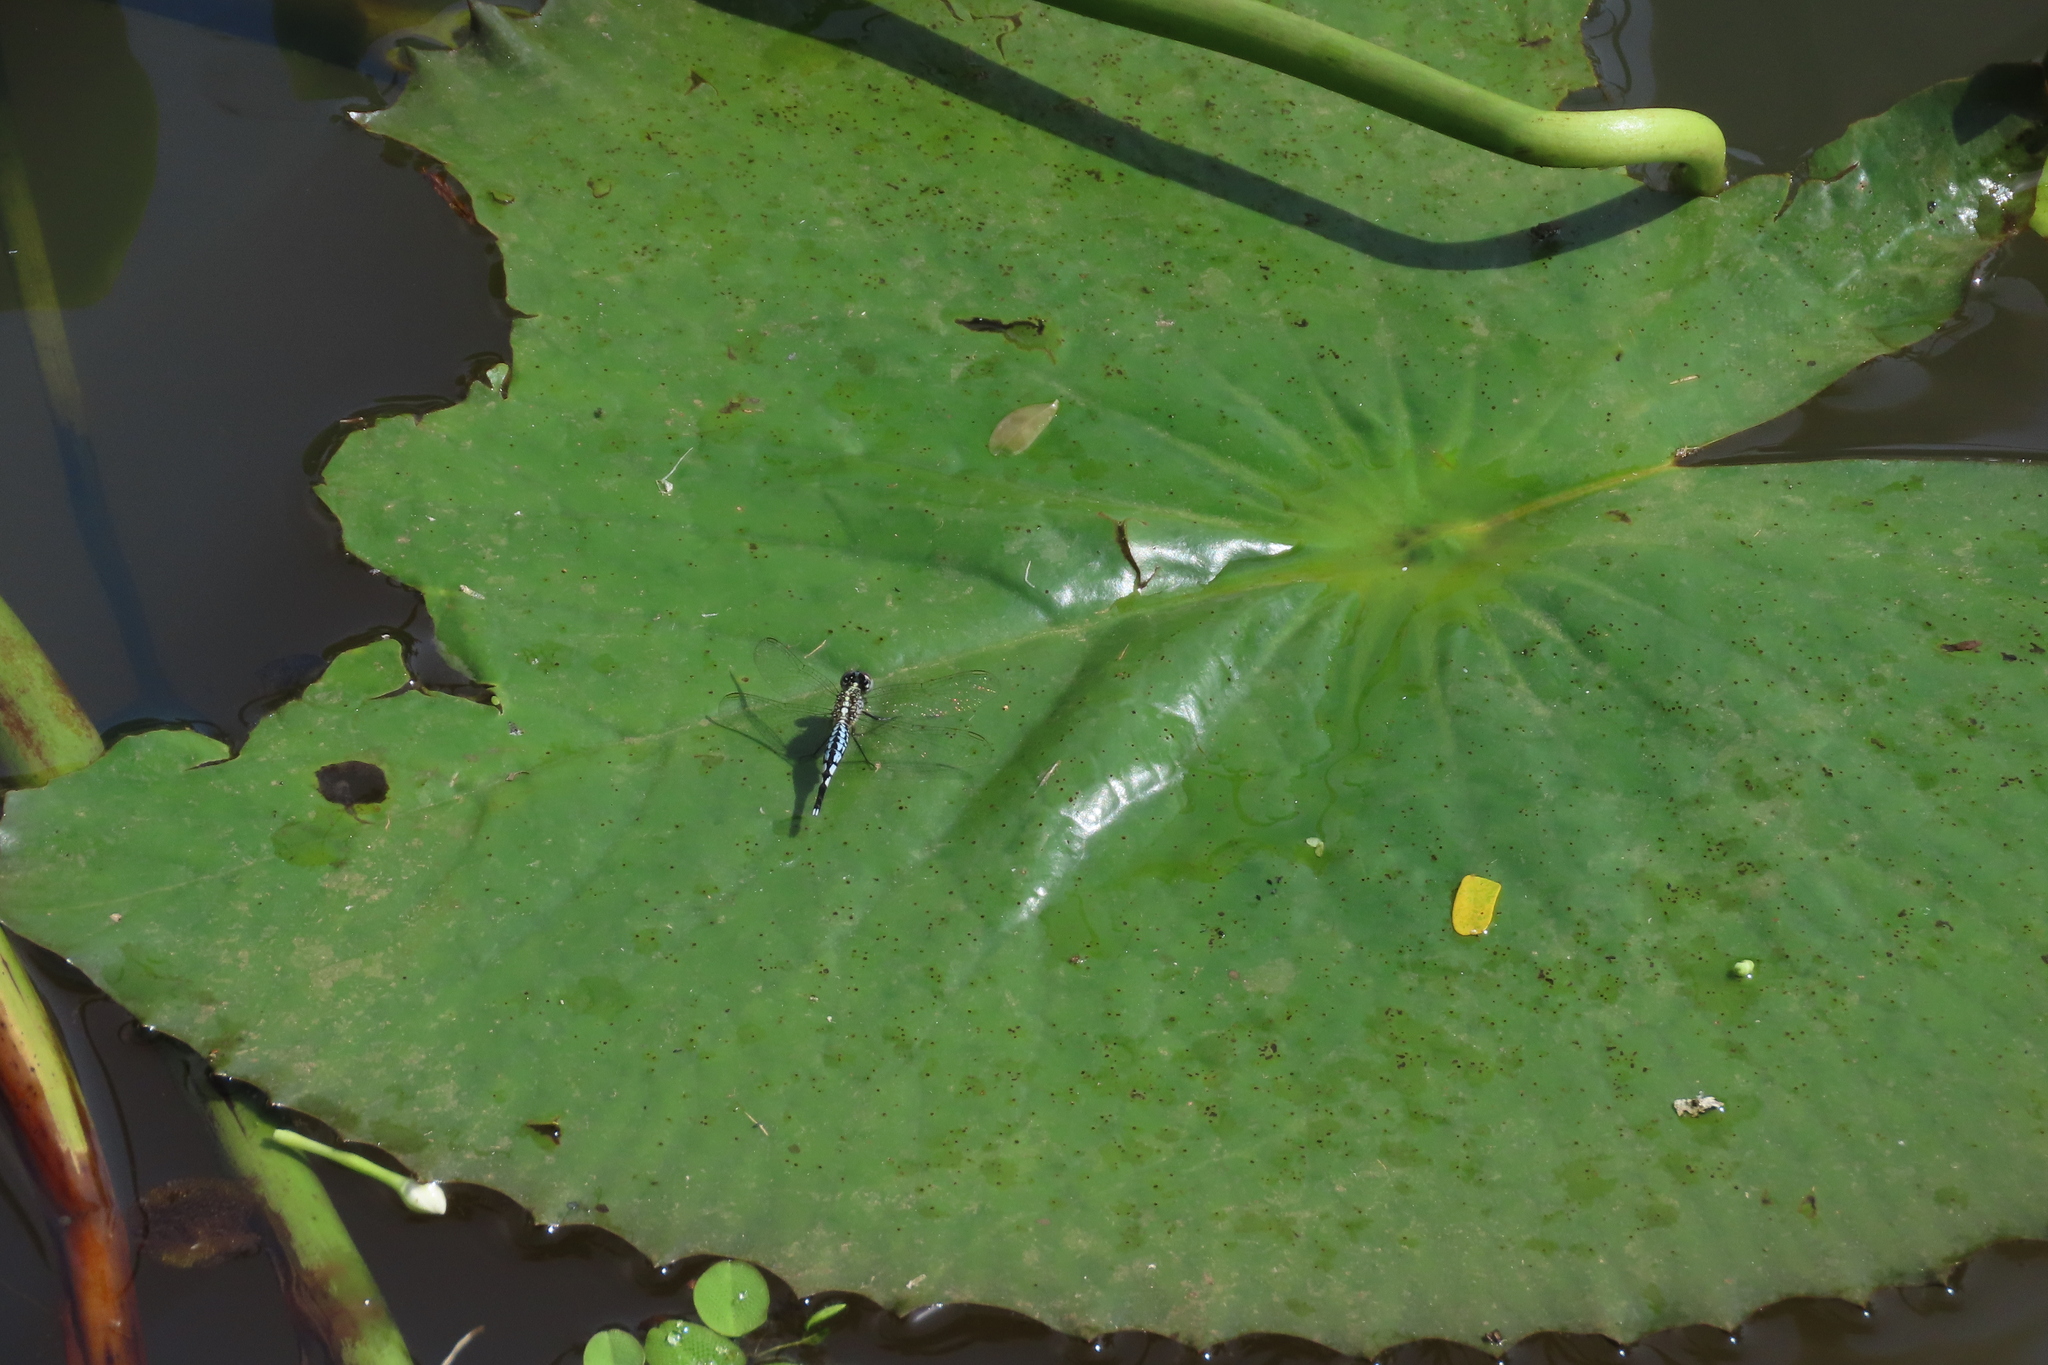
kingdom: Animalia
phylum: Arthropoda
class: Insecta
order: Odonata
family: Libellulidae
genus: Acisoma
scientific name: Acisoma panorpoides
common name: Asian pintail
